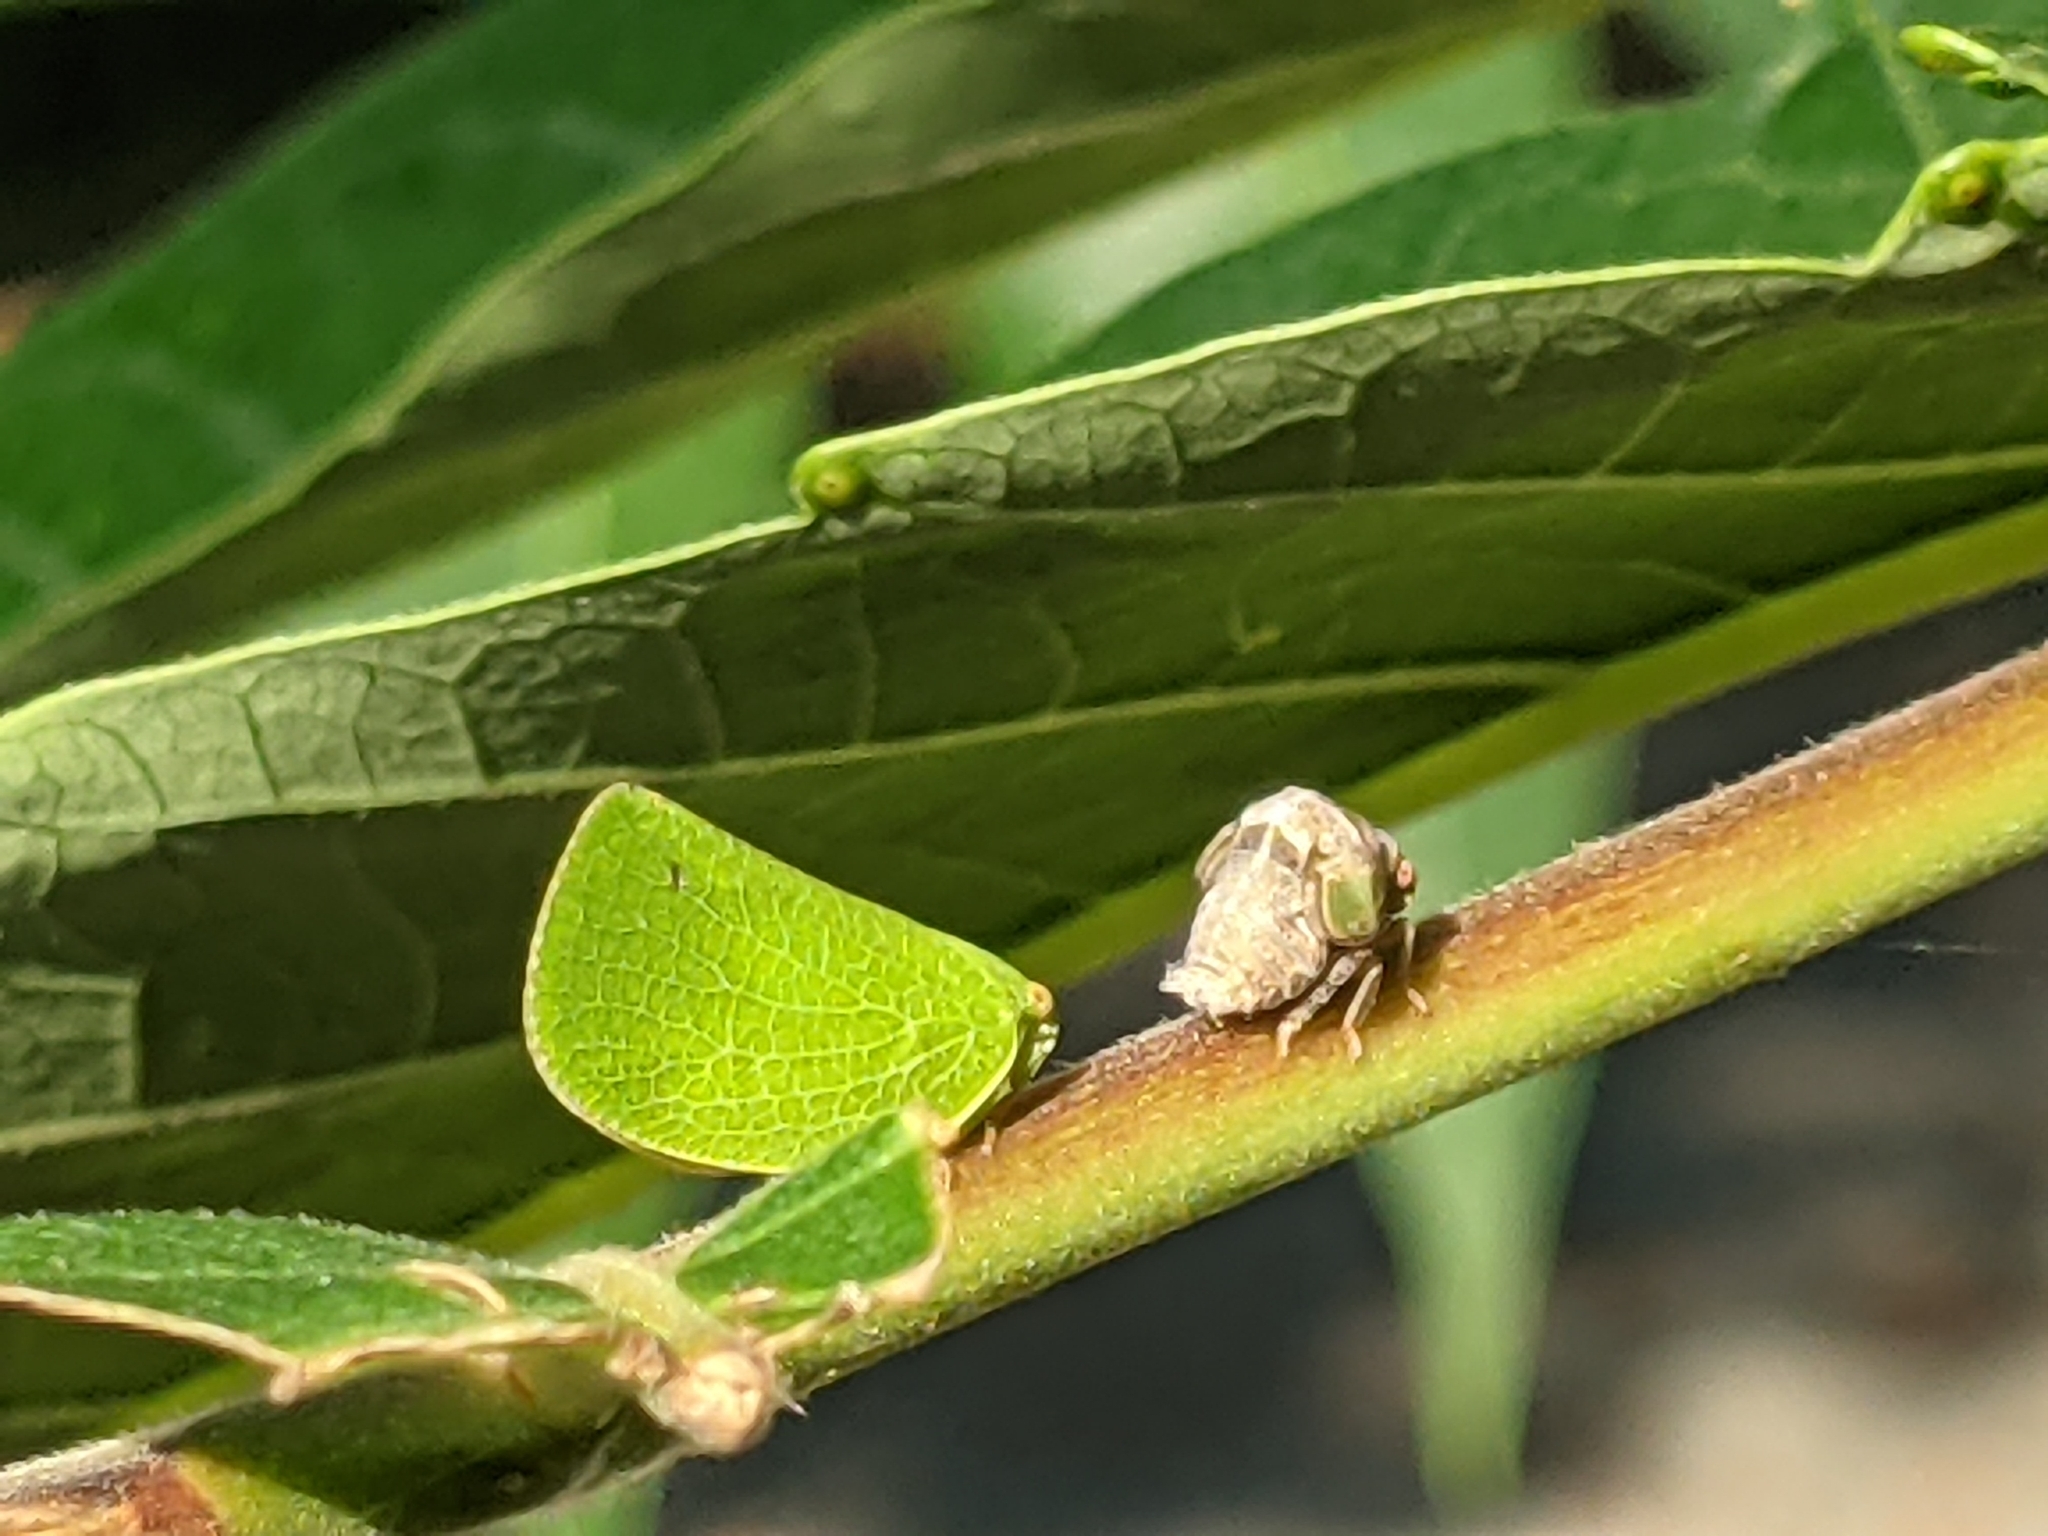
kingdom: Animalia
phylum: Arthropoda
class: Insecta
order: Hemiptera
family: Acanaloniidae
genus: Acanalonia
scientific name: Acanalonia conica
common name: Green cone-headed planthopper
